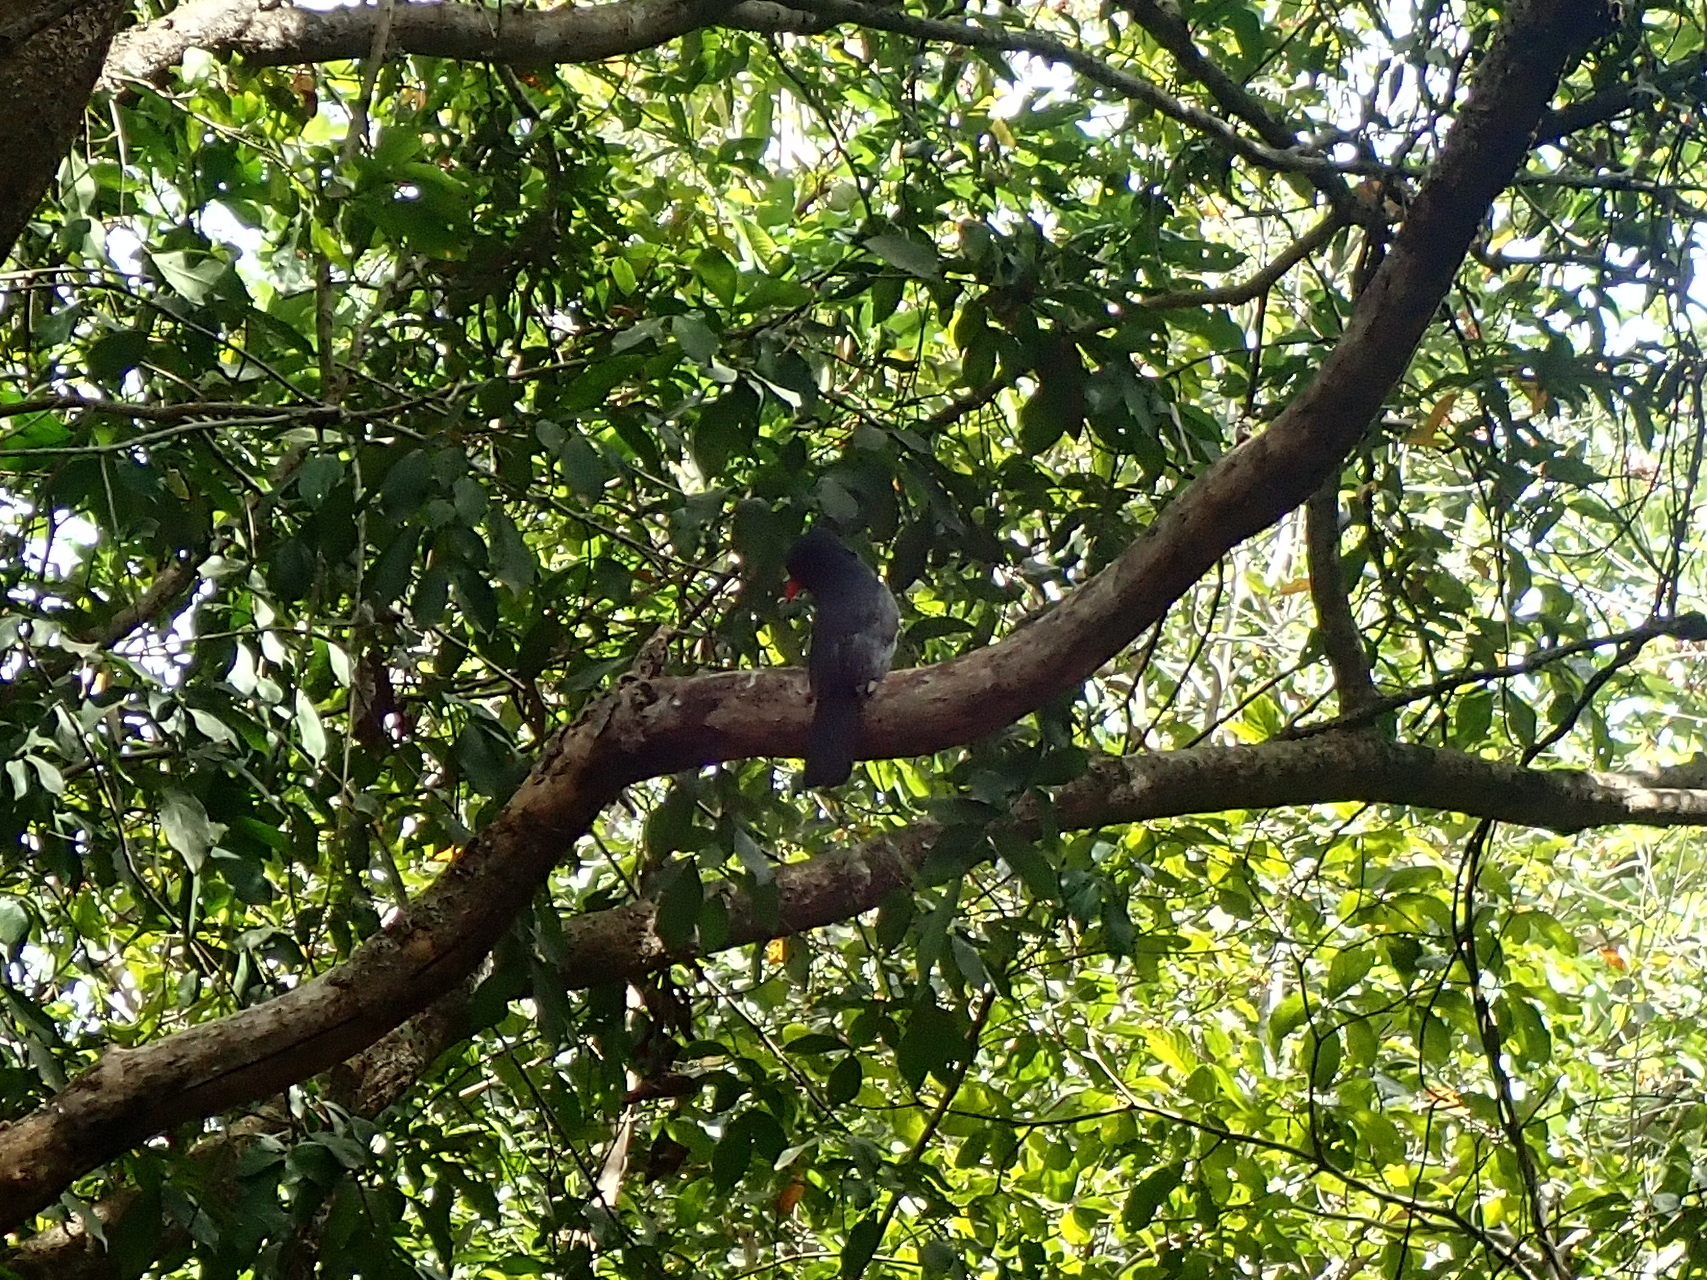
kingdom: Animalia
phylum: Chordata
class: Aves
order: Piciformes
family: Bucconidae
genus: Monasa
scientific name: Monasa nigrifrons
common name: Black-fronted nunbird
